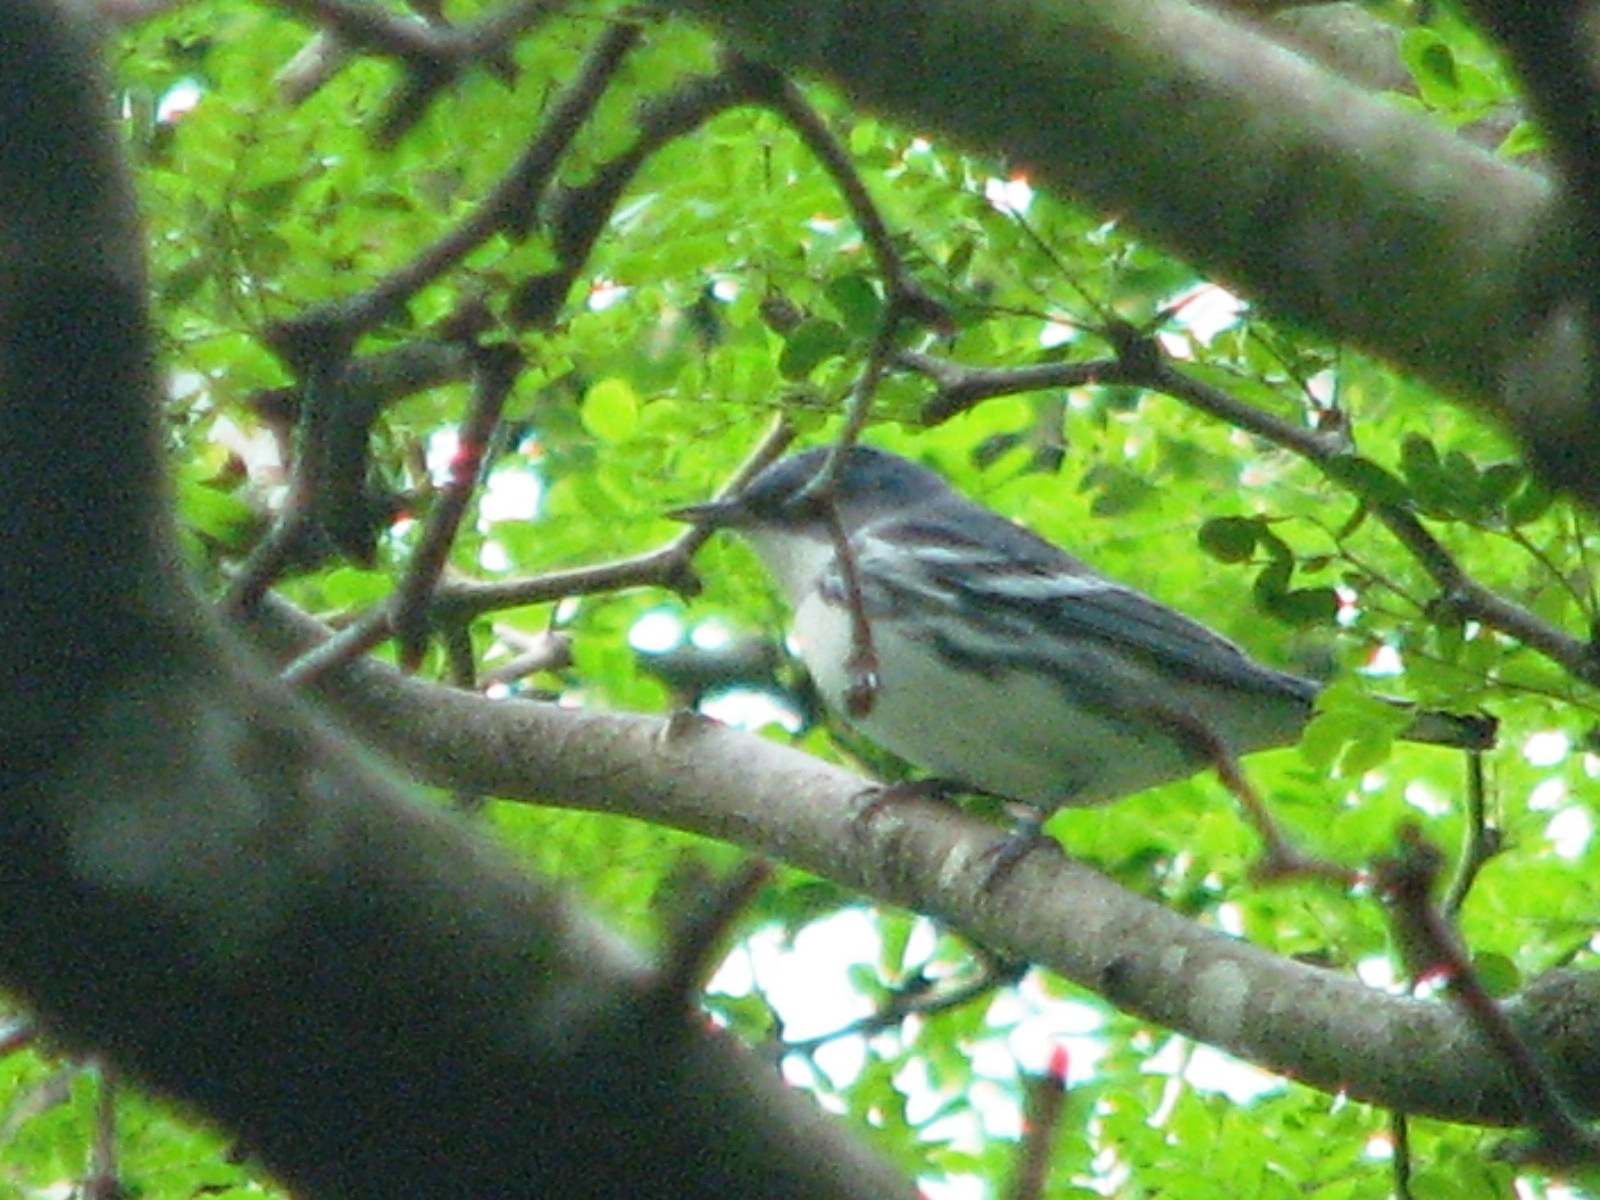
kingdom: Animalia
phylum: Chordata
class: Aves
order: Passeriformes
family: Parulidae
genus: Setophaga
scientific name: Setophaga cerulea
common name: Cerulean warbler
